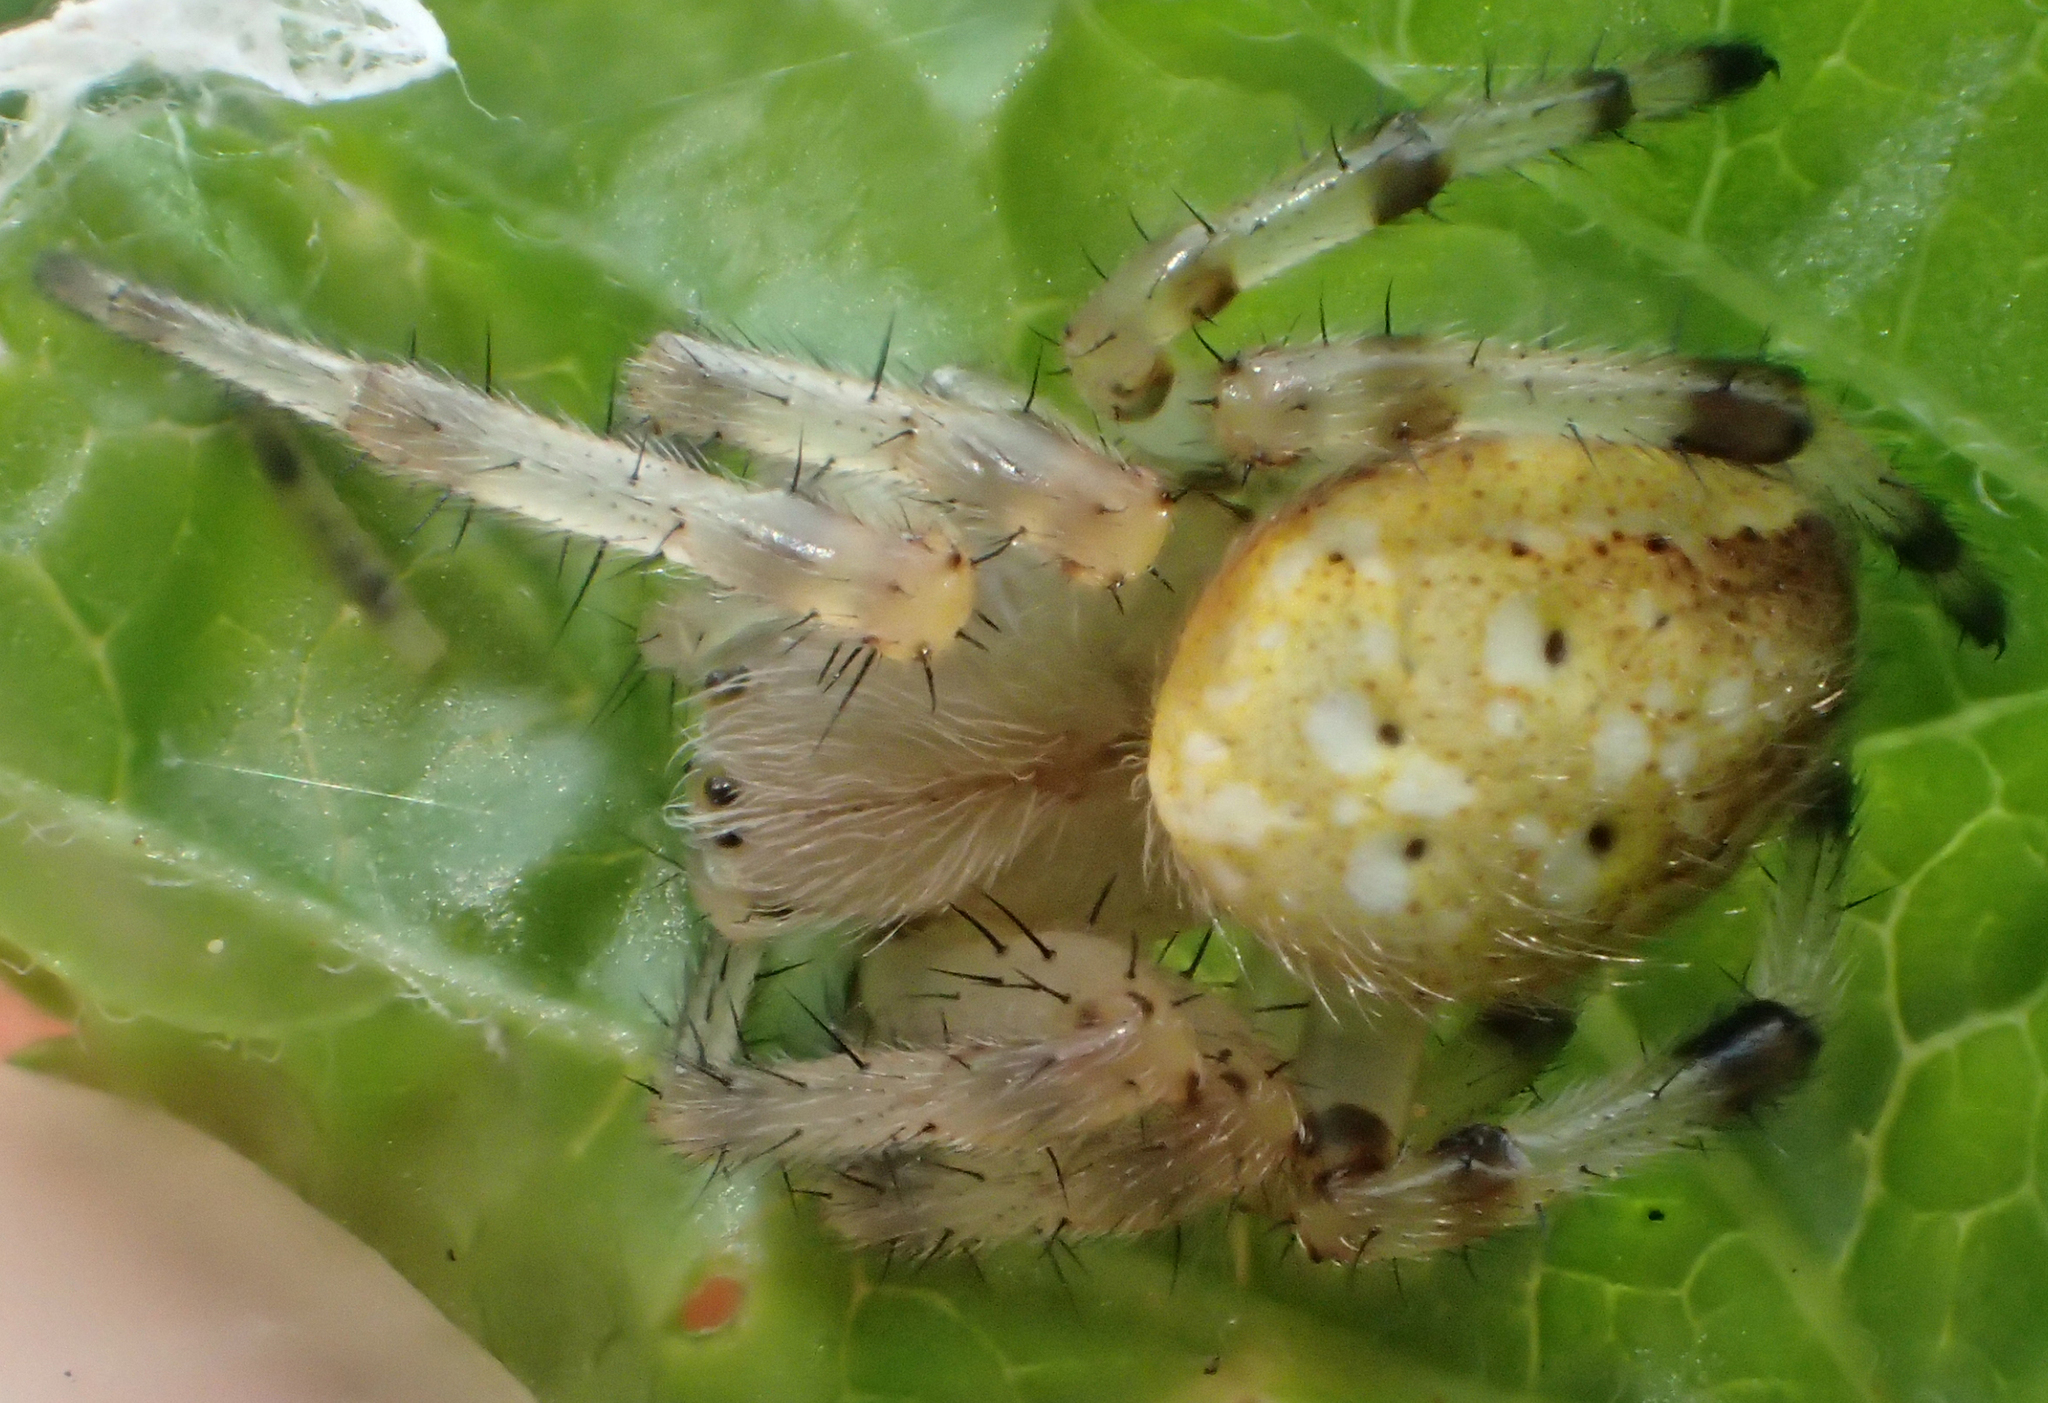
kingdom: Animalia
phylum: Arthropoda
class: Arachnida
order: Araneae
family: Araneidae
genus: Araneus
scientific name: Araneus trifolium
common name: Shamrock orbweaver
